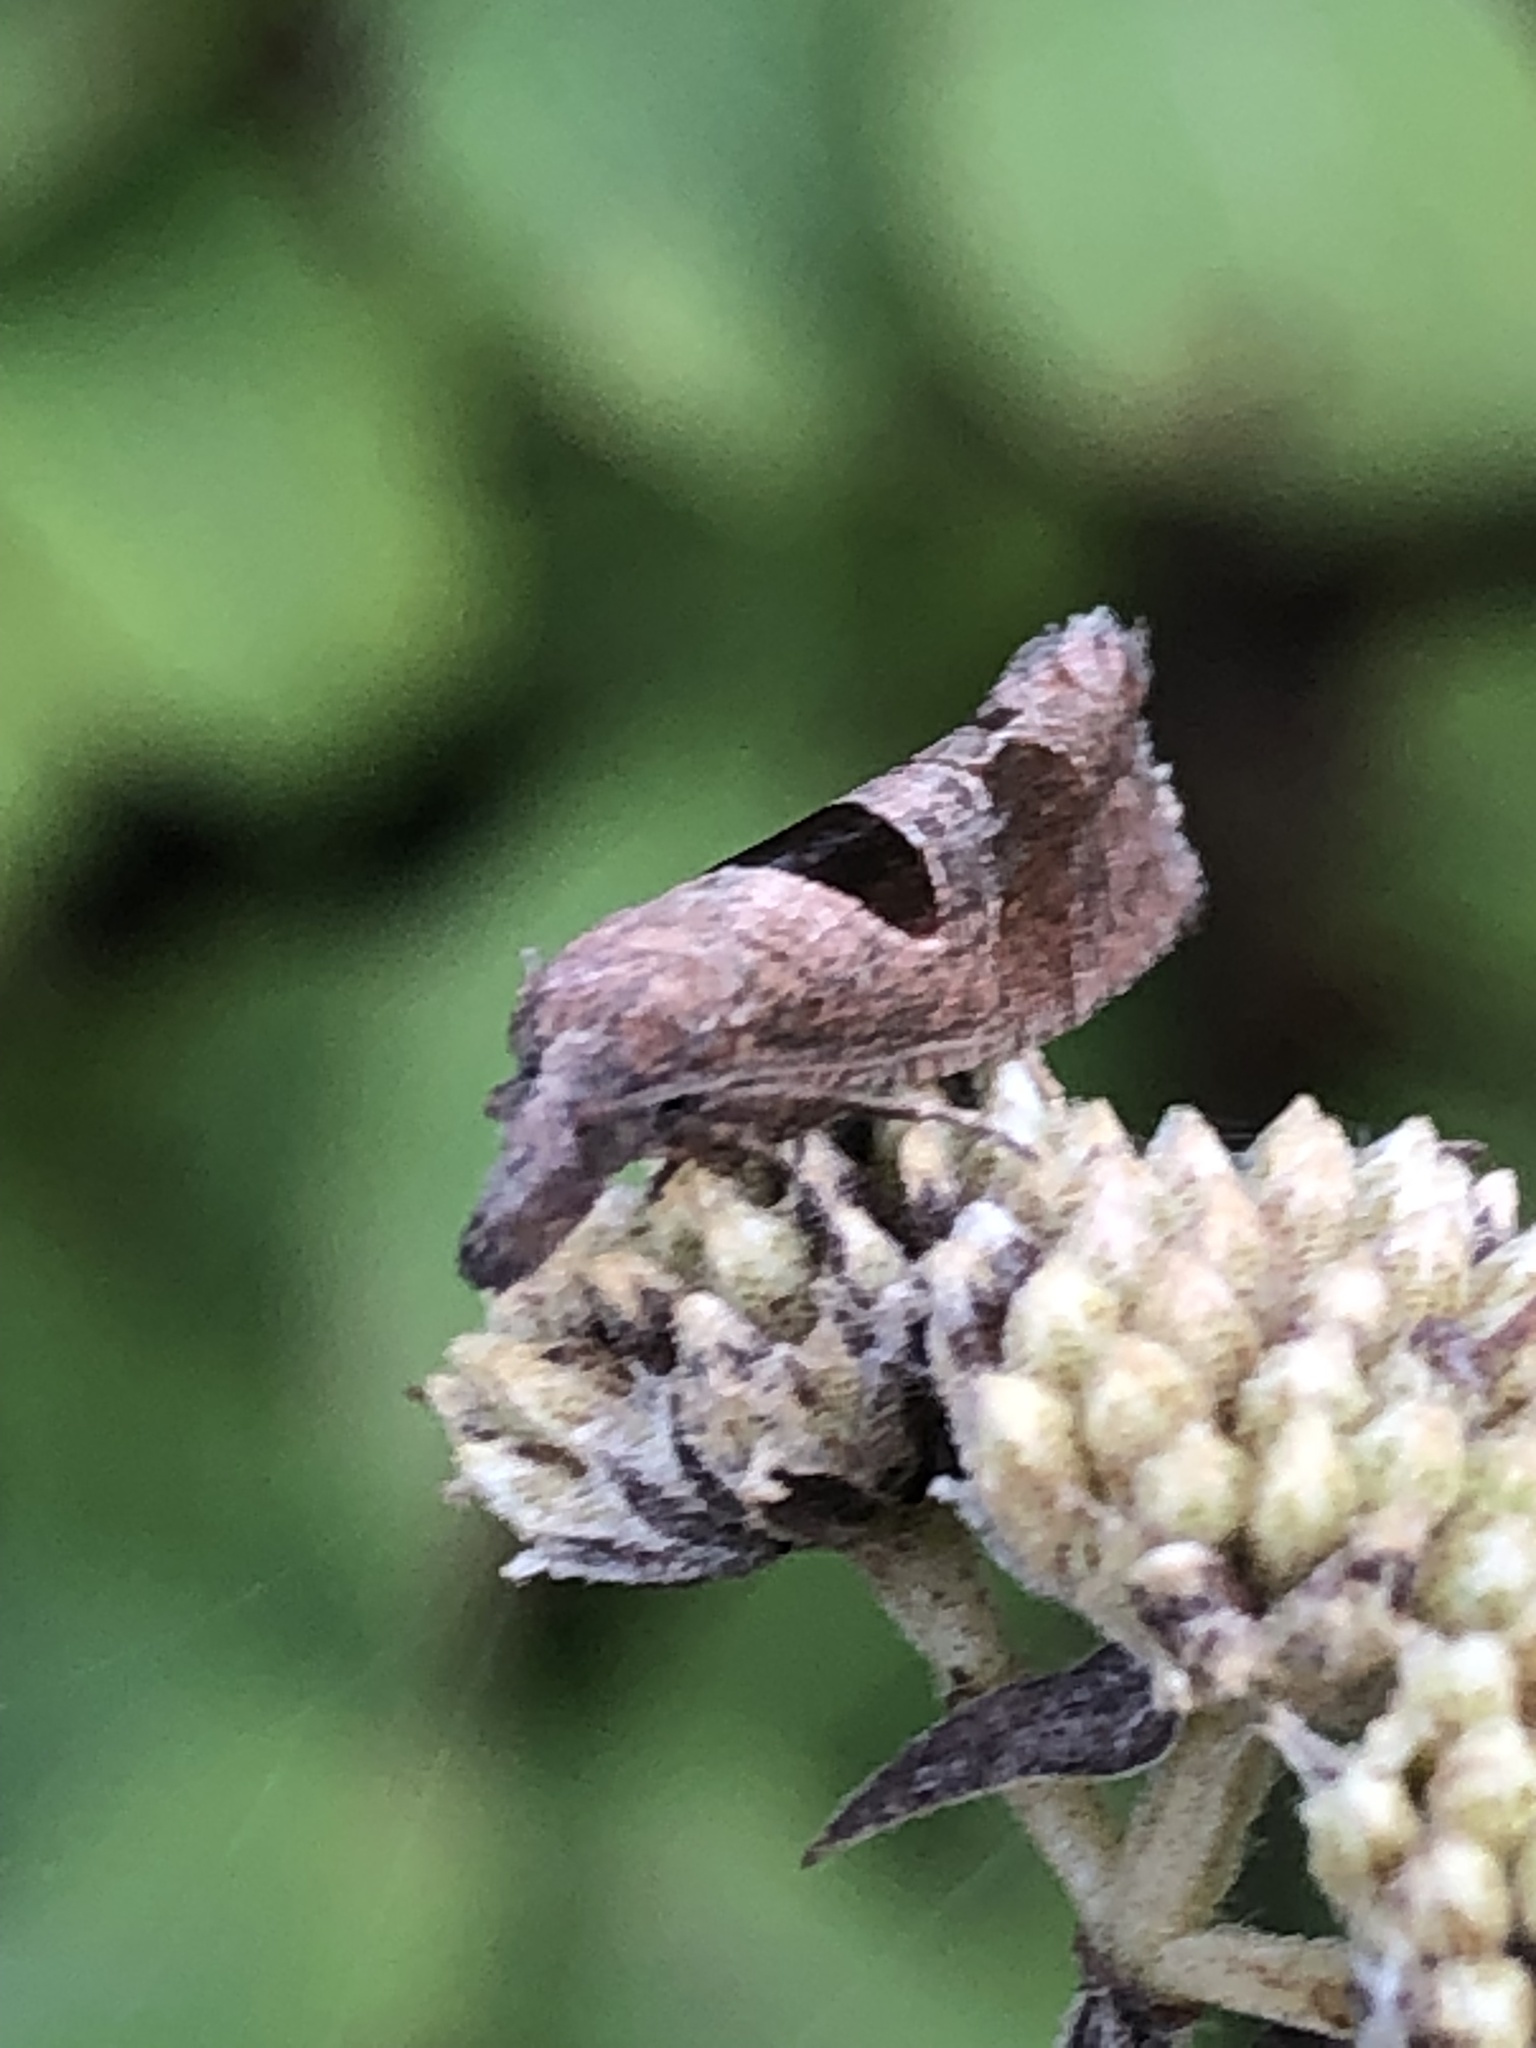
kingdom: Animalia
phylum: Arthropoda
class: Insecta
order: Lepidoptera
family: Tortricidae
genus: Pelochrista
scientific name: Pelochrista dorsisignatana
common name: Triangle-backed pelochrista moth
